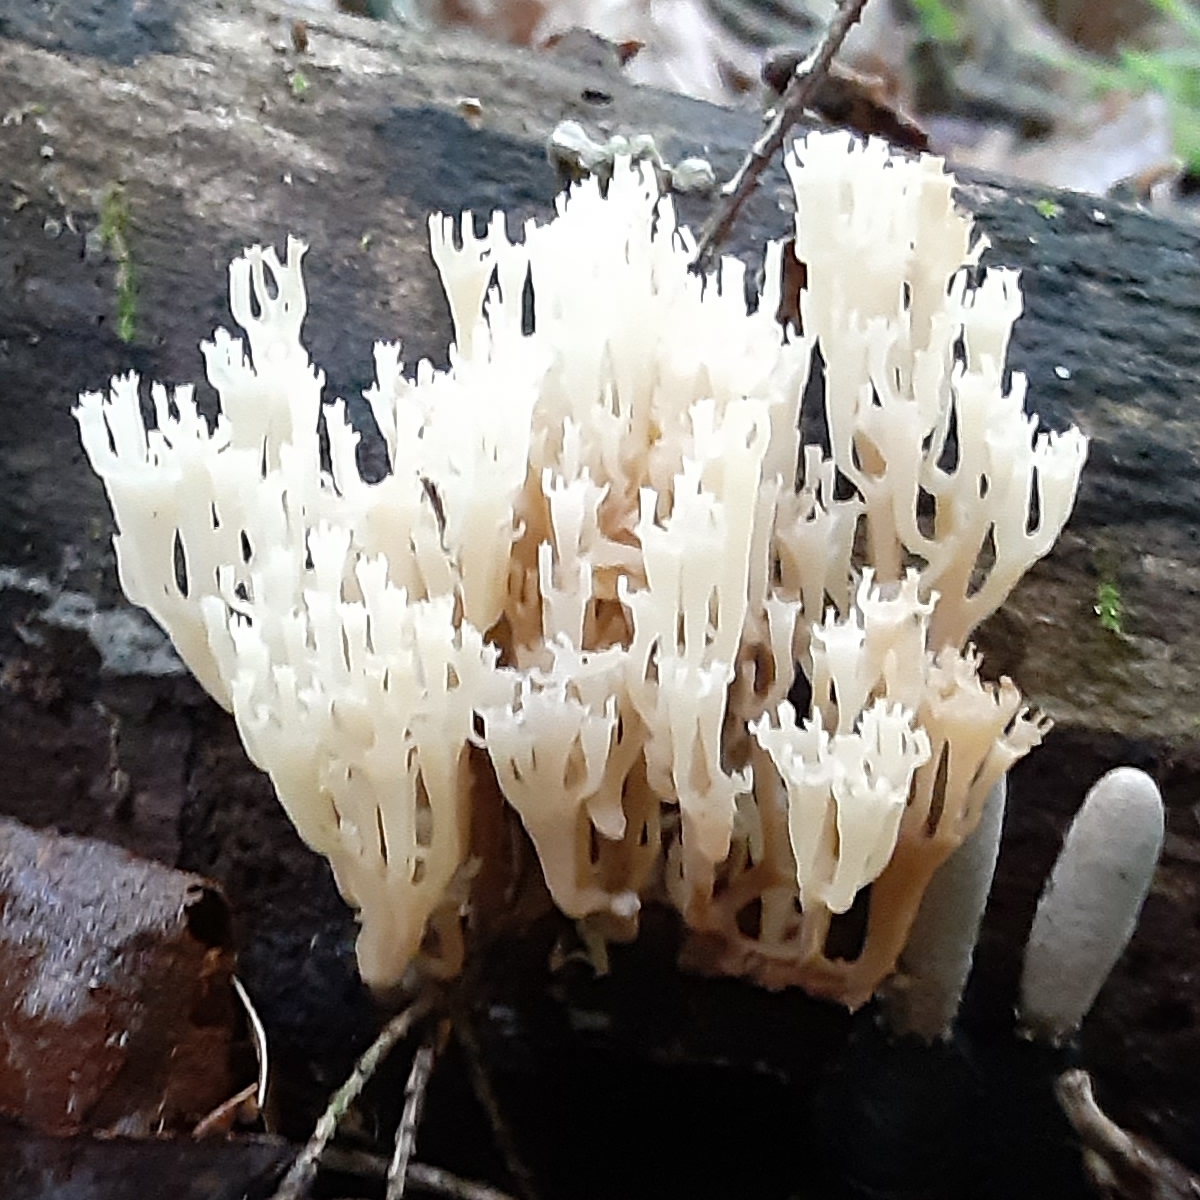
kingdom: Fungi
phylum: Basidiomycota
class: Agaricomycetes
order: Russulales
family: Auriscalpiaceae
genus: Artomyces
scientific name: Artomyces pyxidatus
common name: Crown-tipped coral fungus
